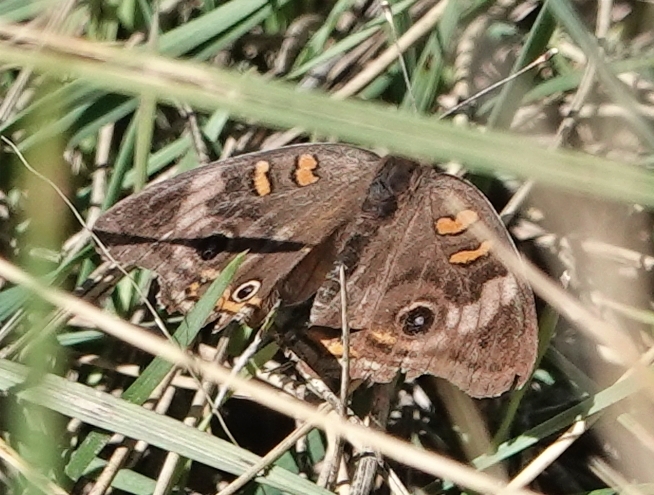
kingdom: Animalia
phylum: Arthropoda
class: Insecta
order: Lepidoptera
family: Nymphalidae
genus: Junonia
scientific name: Junonia coenia
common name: Common buckeye
